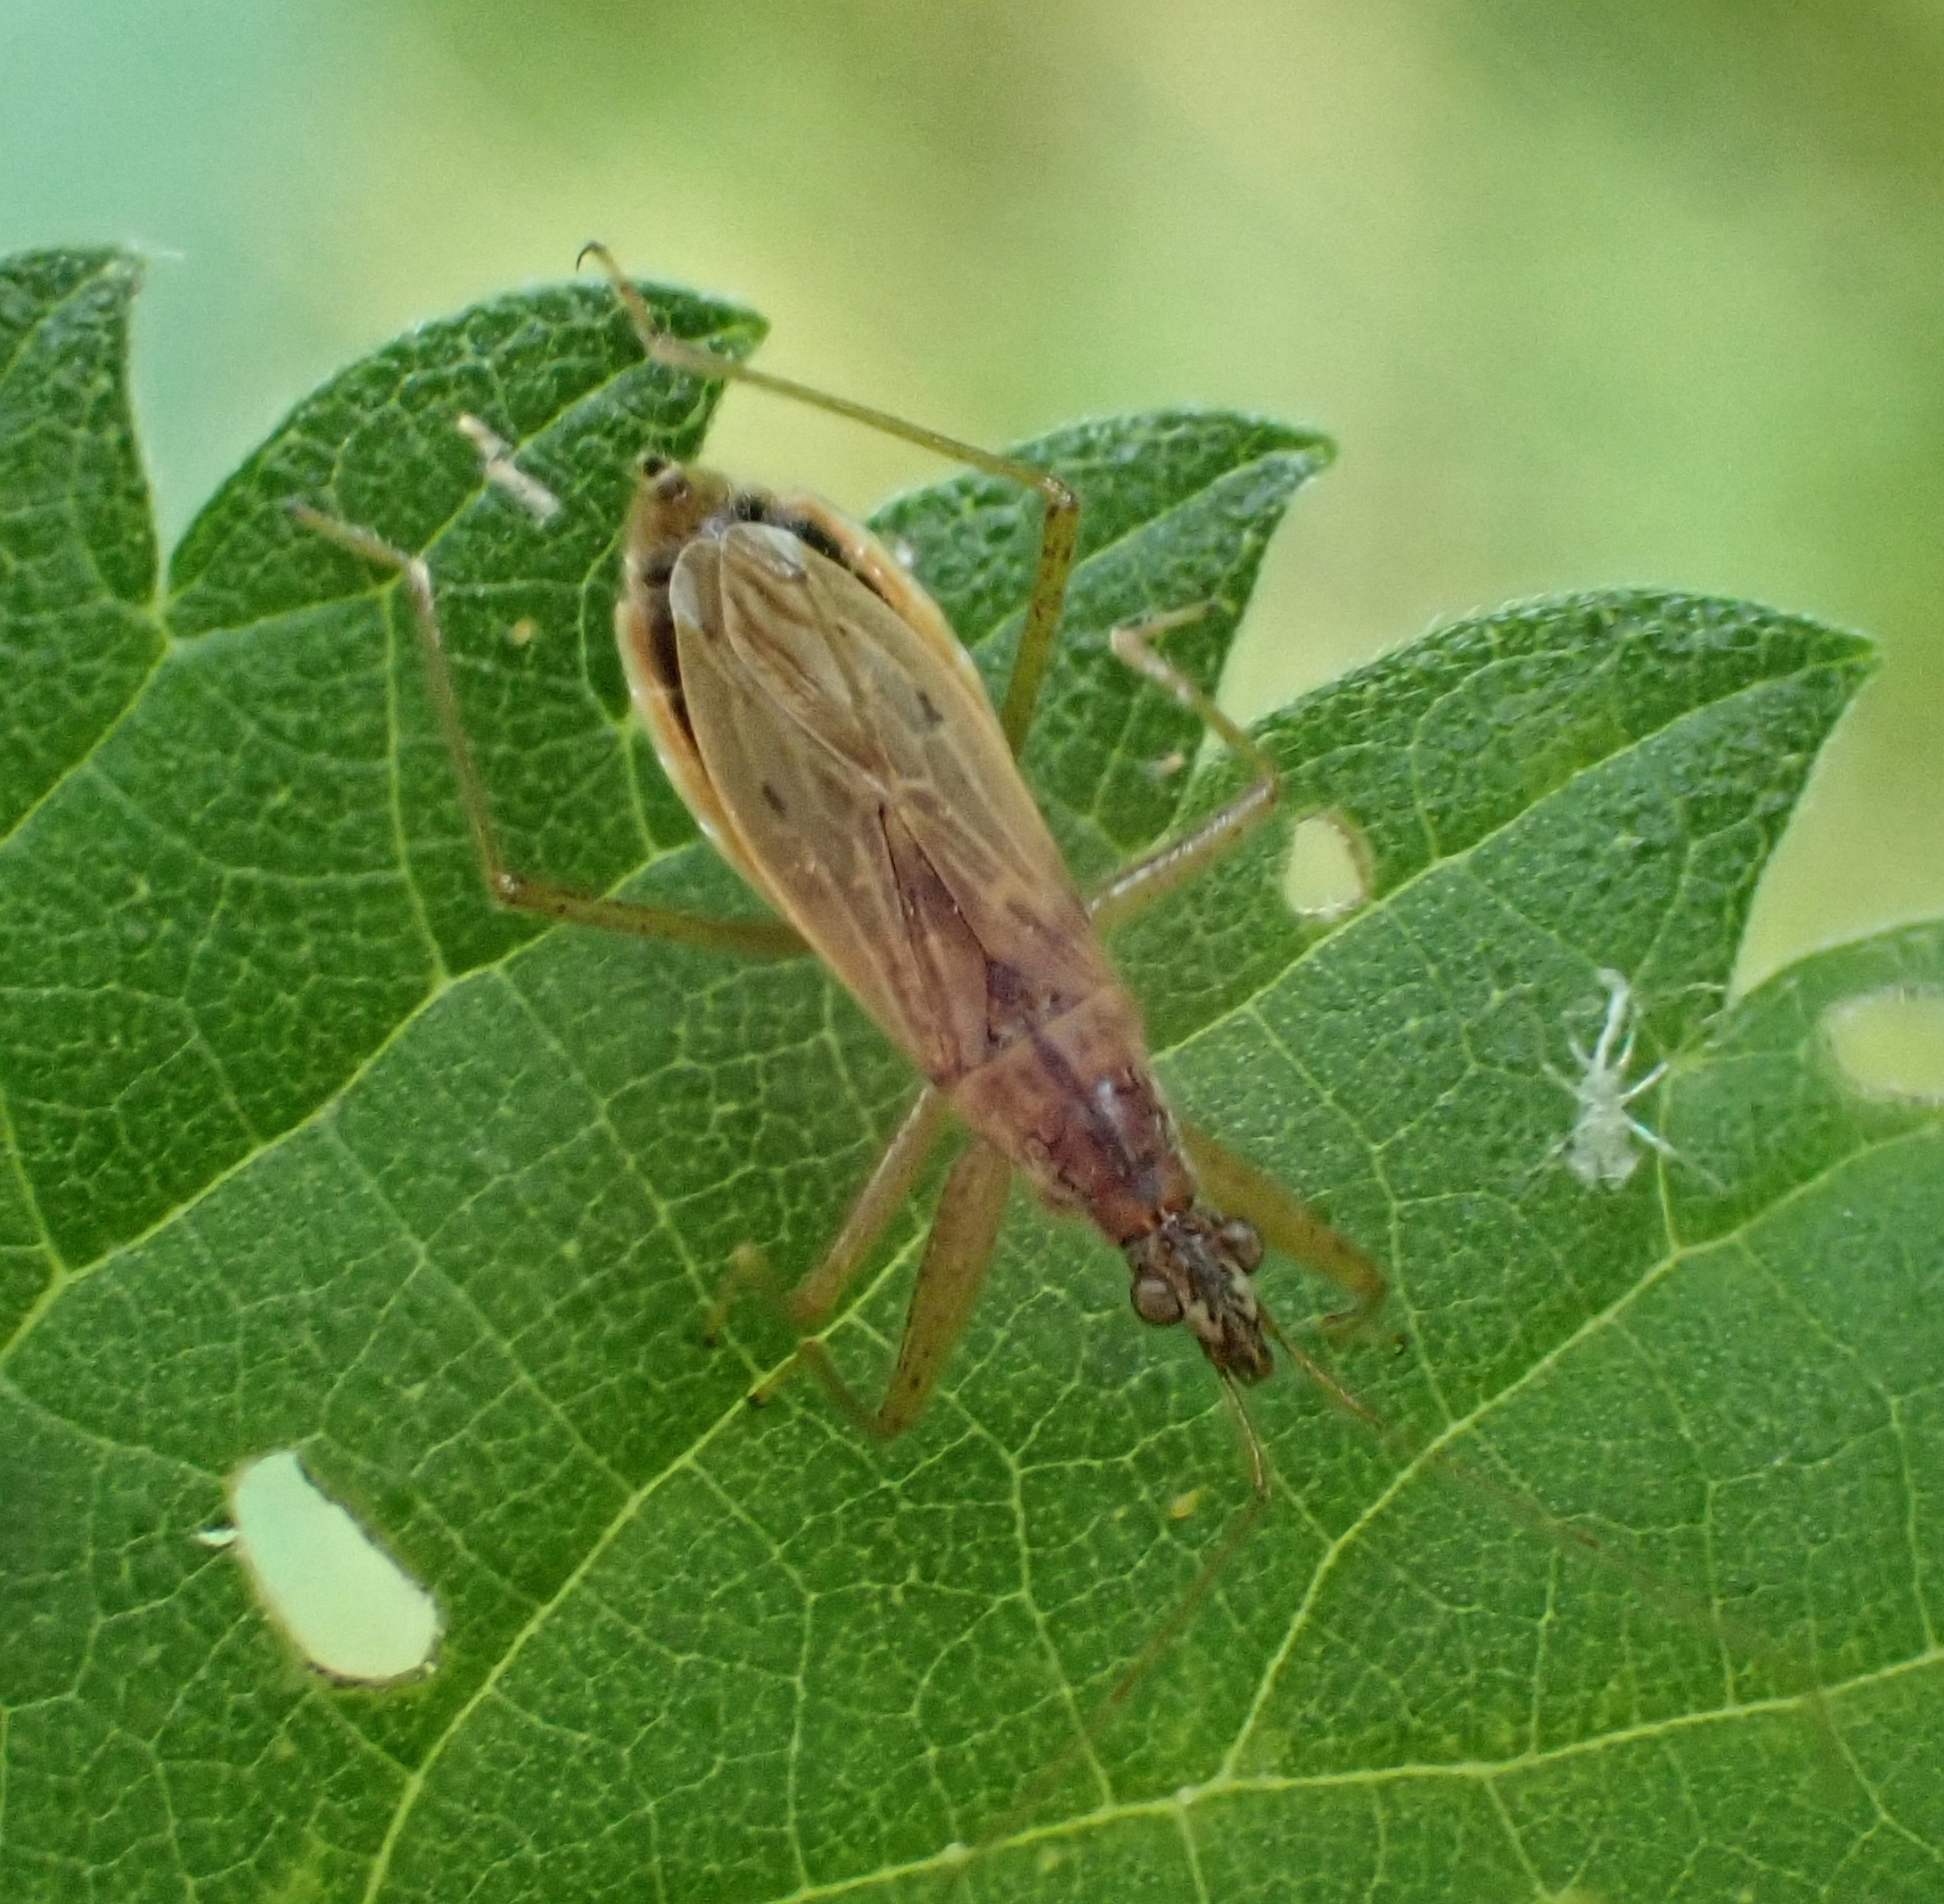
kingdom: Animalia
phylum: Arthropoda
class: Insecta
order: Hemiptera
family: Nabidae
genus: Nabis
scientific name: Nabis
